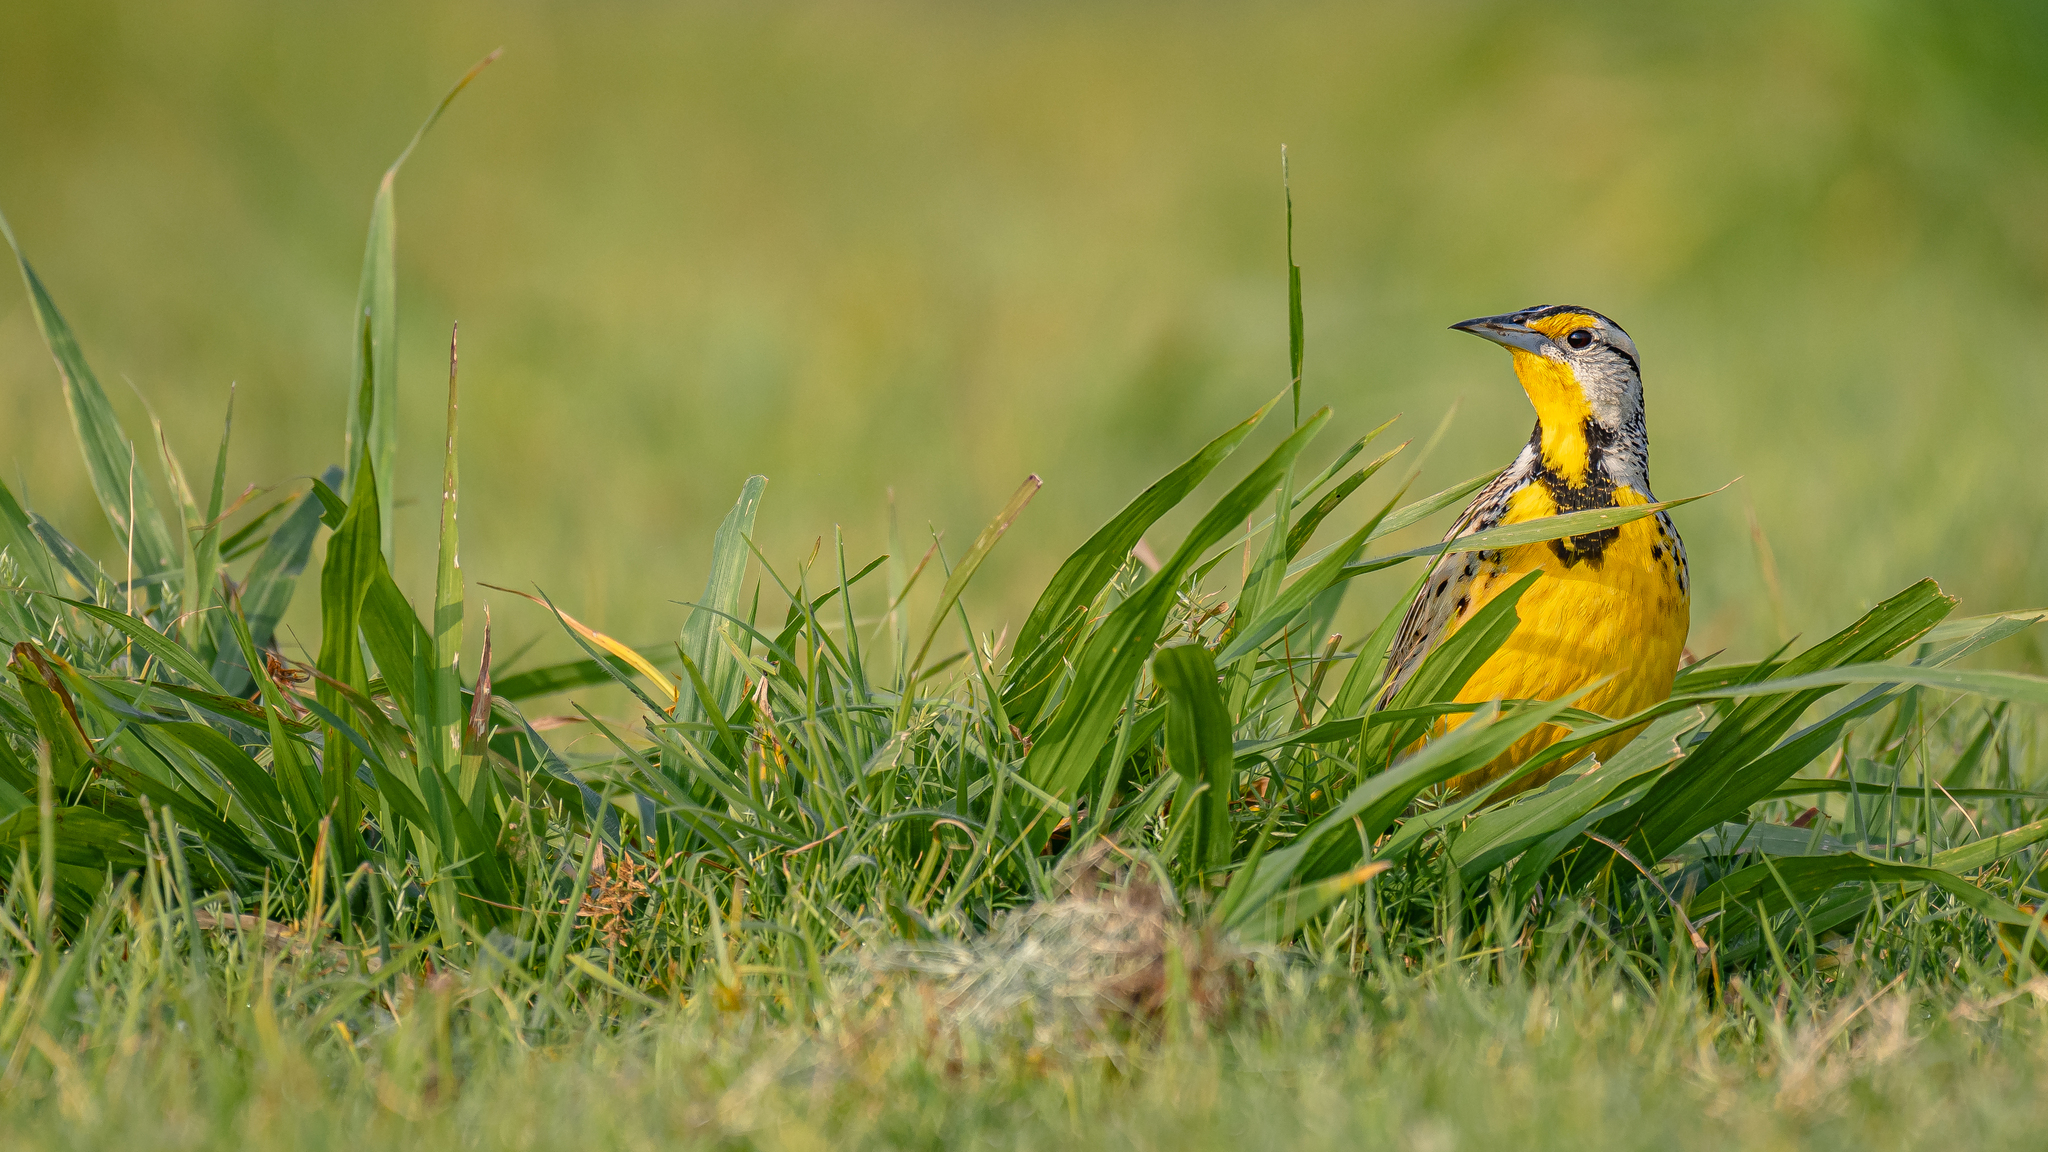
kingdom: Animalia
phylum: Chordata
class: Aves
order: Passeriformes
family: Icteridae
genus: Sturnella
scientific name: Sturnella magna
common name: Eastern meadowlark
